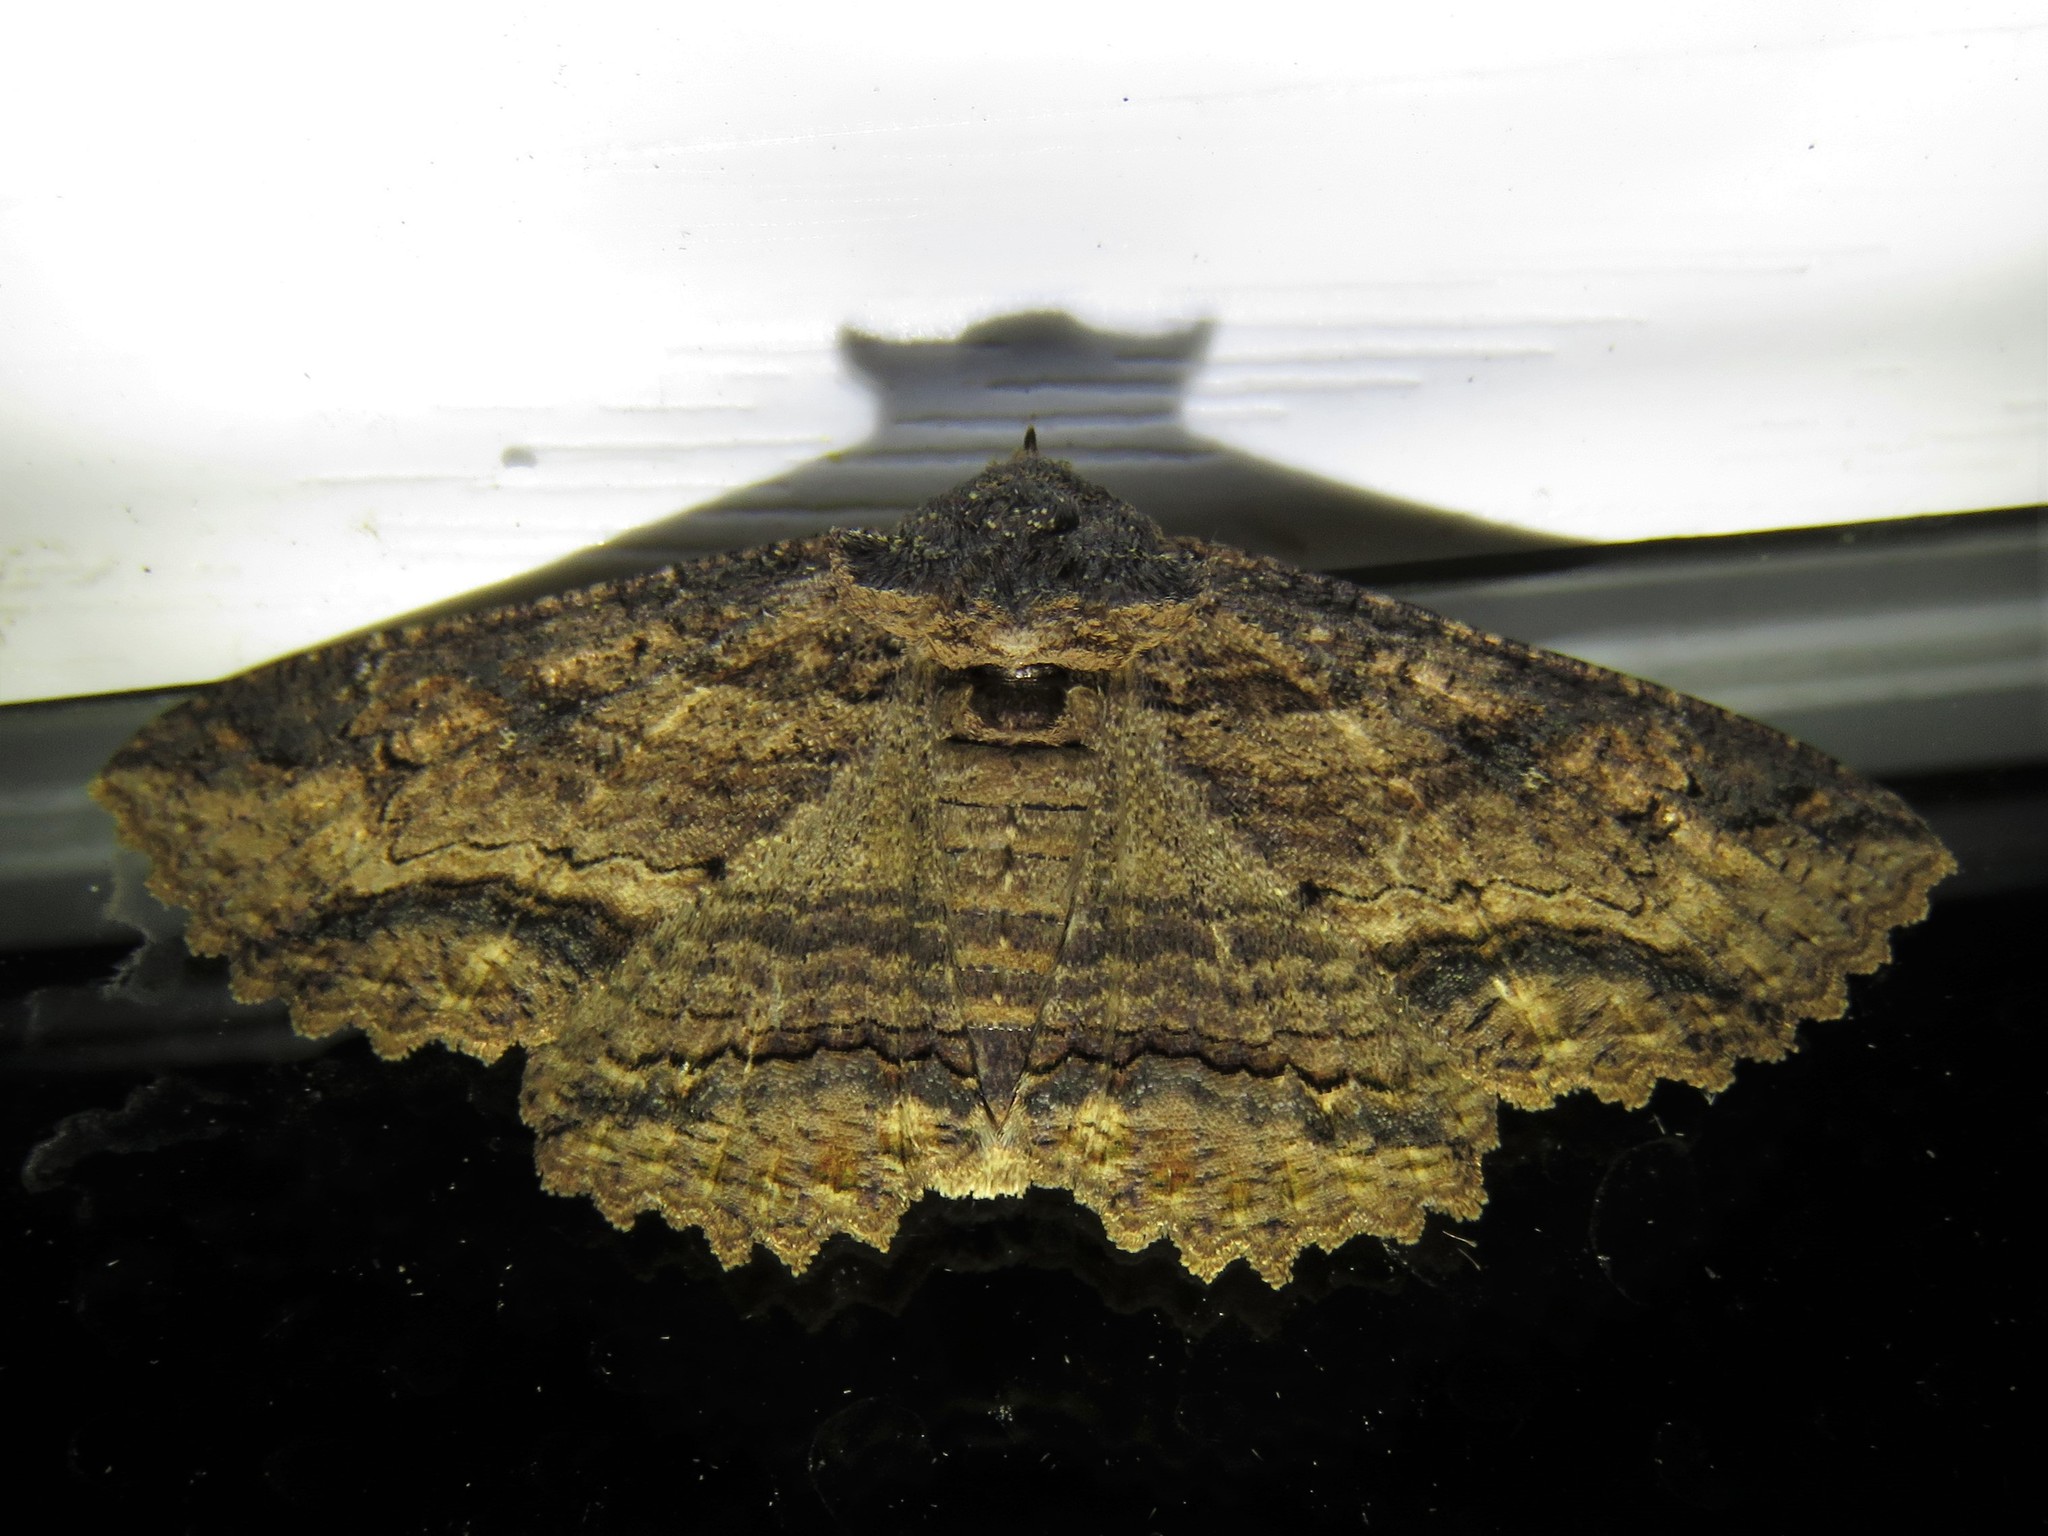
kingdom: Animalia
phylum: Arthropoda
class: Insecta
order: Lepidoptera
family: Erebidae
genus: Zale
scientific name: Zale lunata
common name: Lunate zale moth
